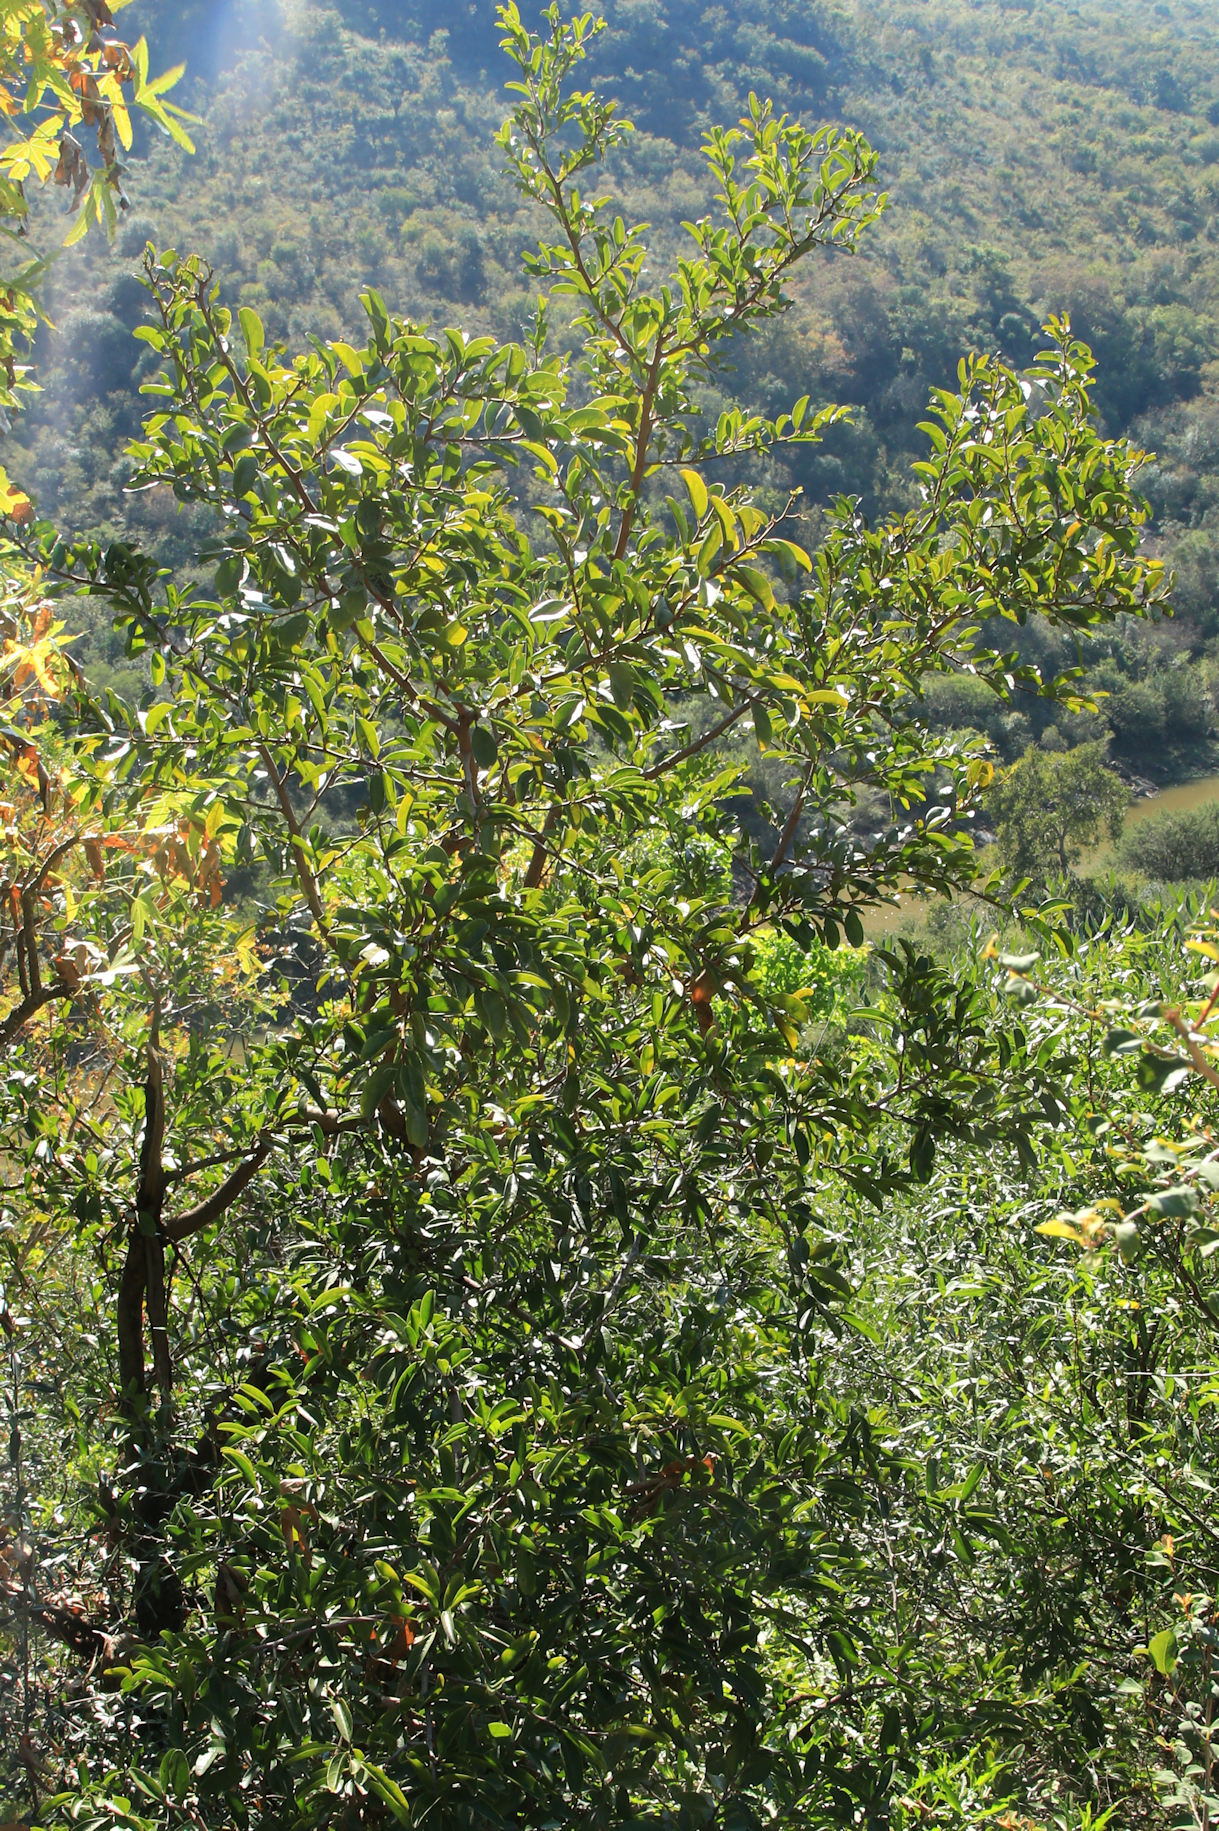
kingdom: Plantae
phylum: Tracheophyta
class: Magnoliopsida
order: Santalales
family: Ximeniaceae
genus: Ximenia
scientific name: Ximenia caffra
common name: Large sourplum
